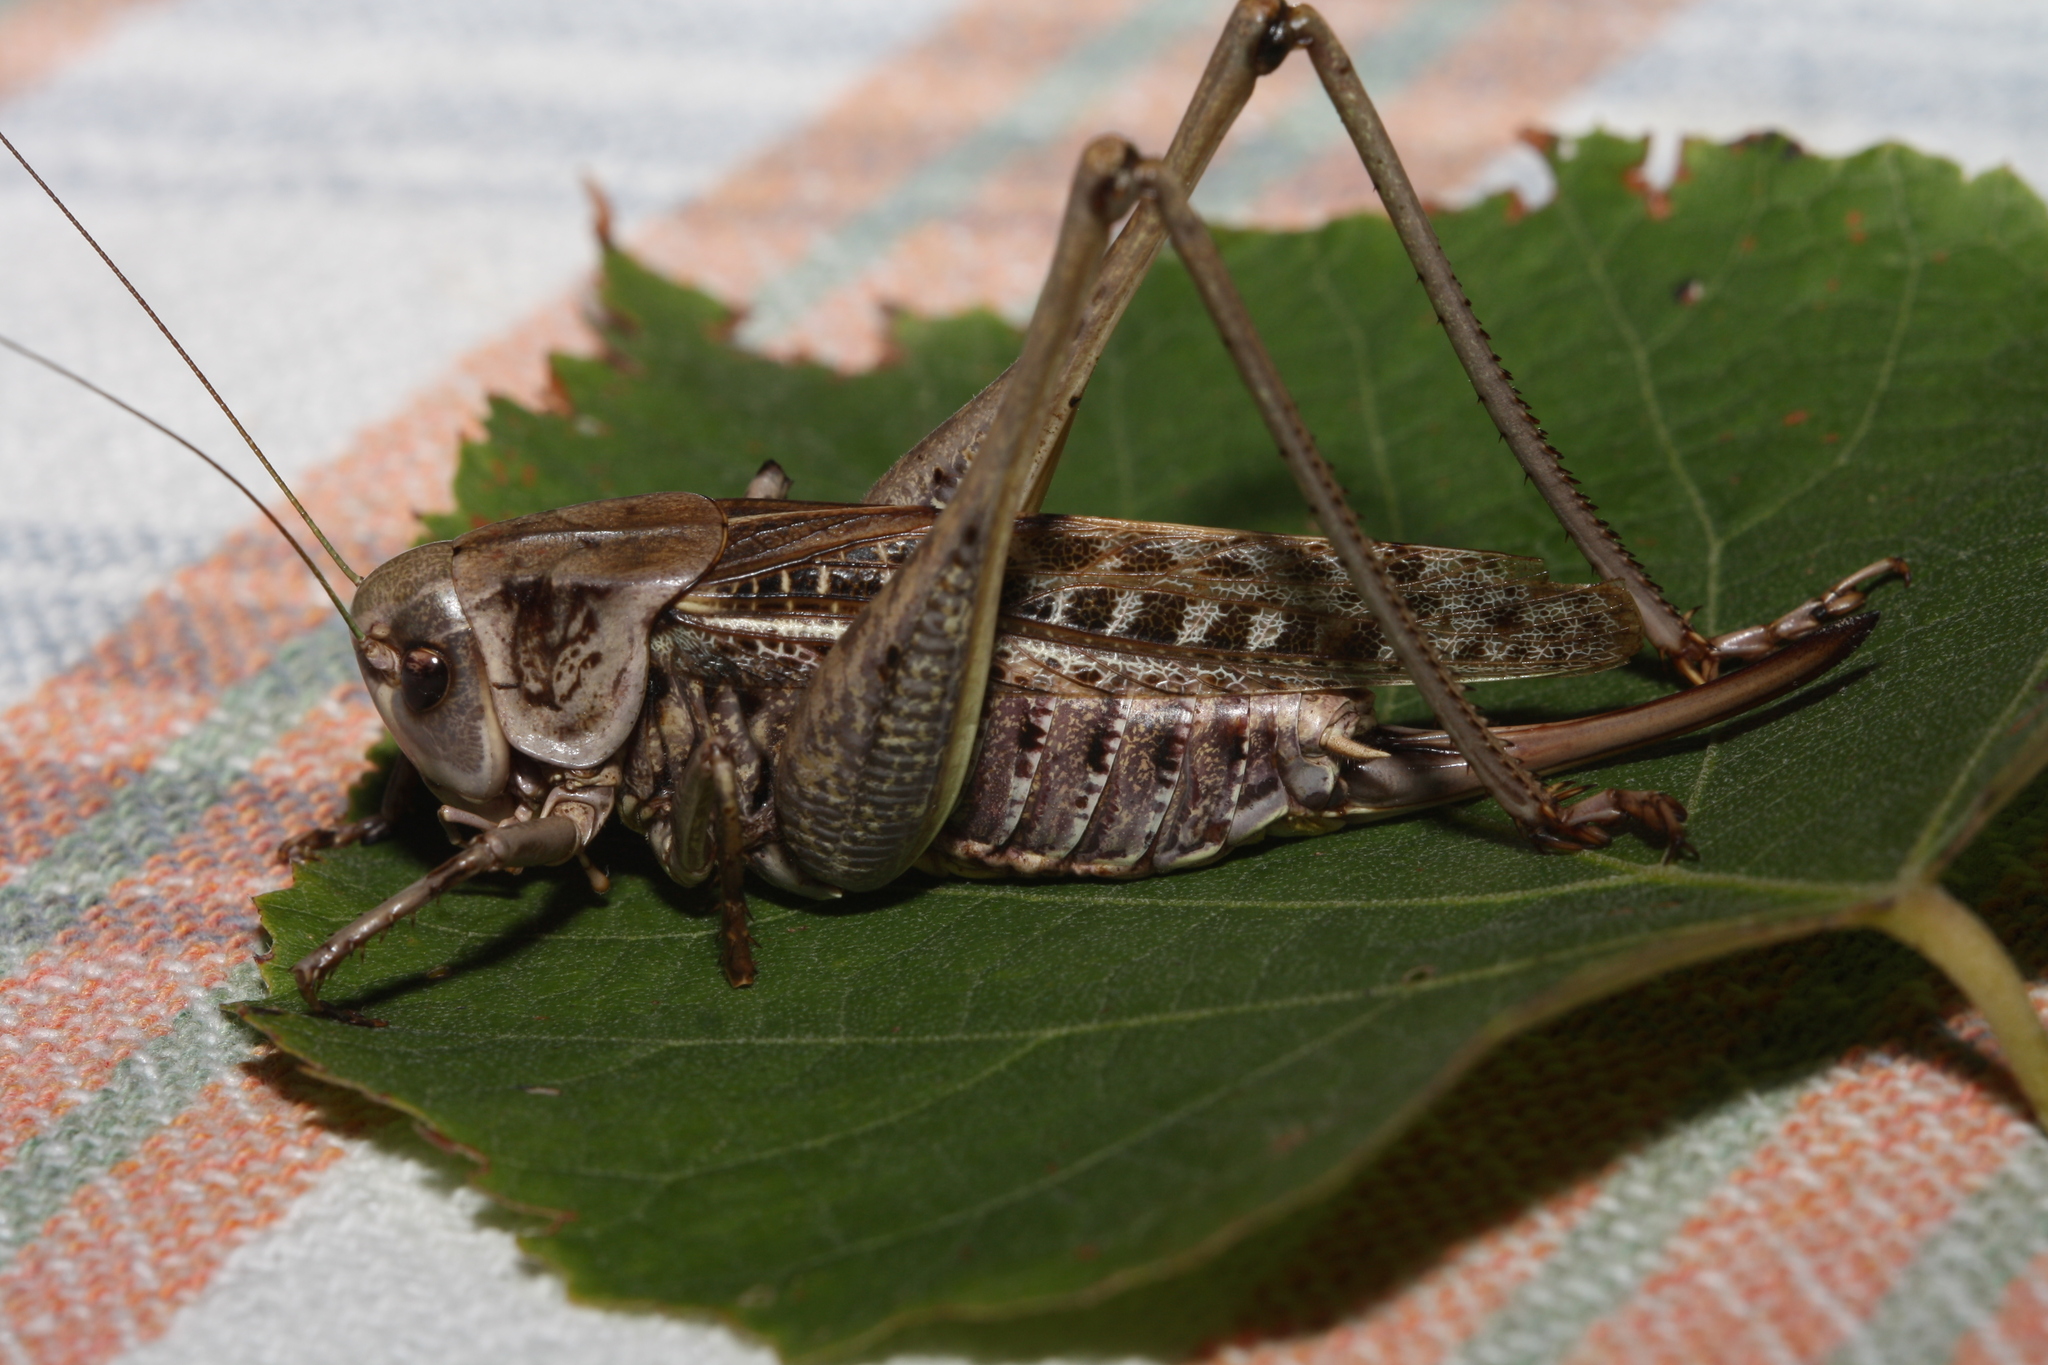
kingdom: Animalia
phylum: Arthropoda
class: Insecta
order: Orthoptera
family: Tettigoniidae
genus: Decticus
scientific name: Decticus verrucivorus
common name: Wart-biter
